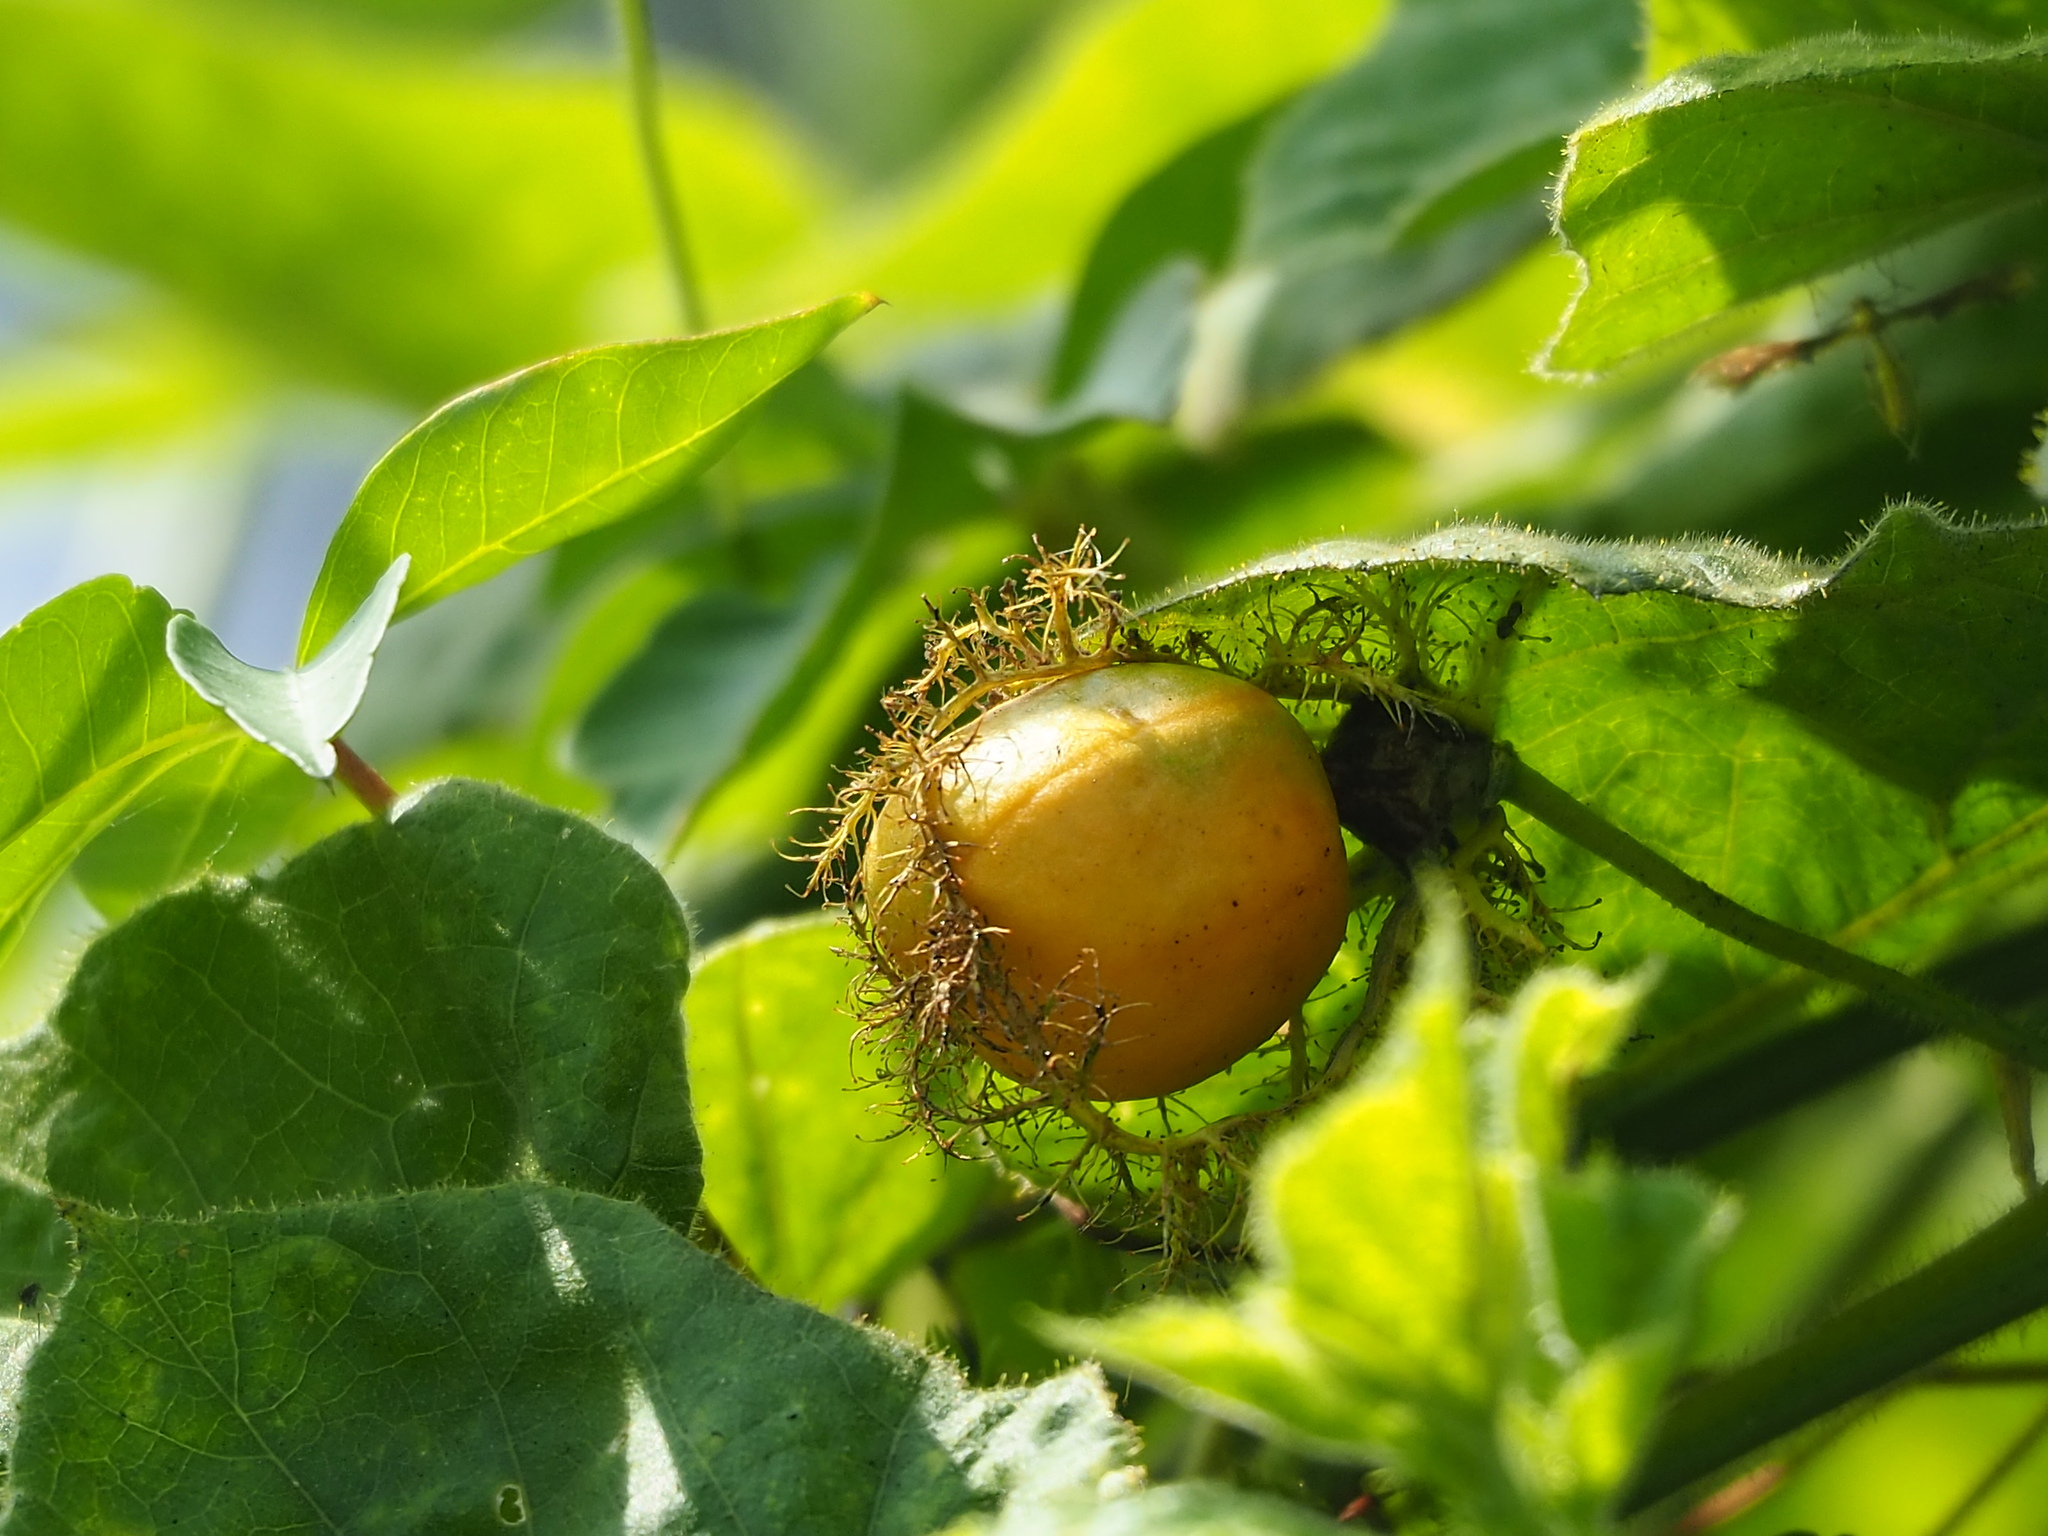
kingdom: Plantae
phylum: Tracheophyta
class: Magnoliopsida
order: Malpighiales
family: Passifloraceae
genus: Passiflora
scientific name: Passiflora vesicaria
